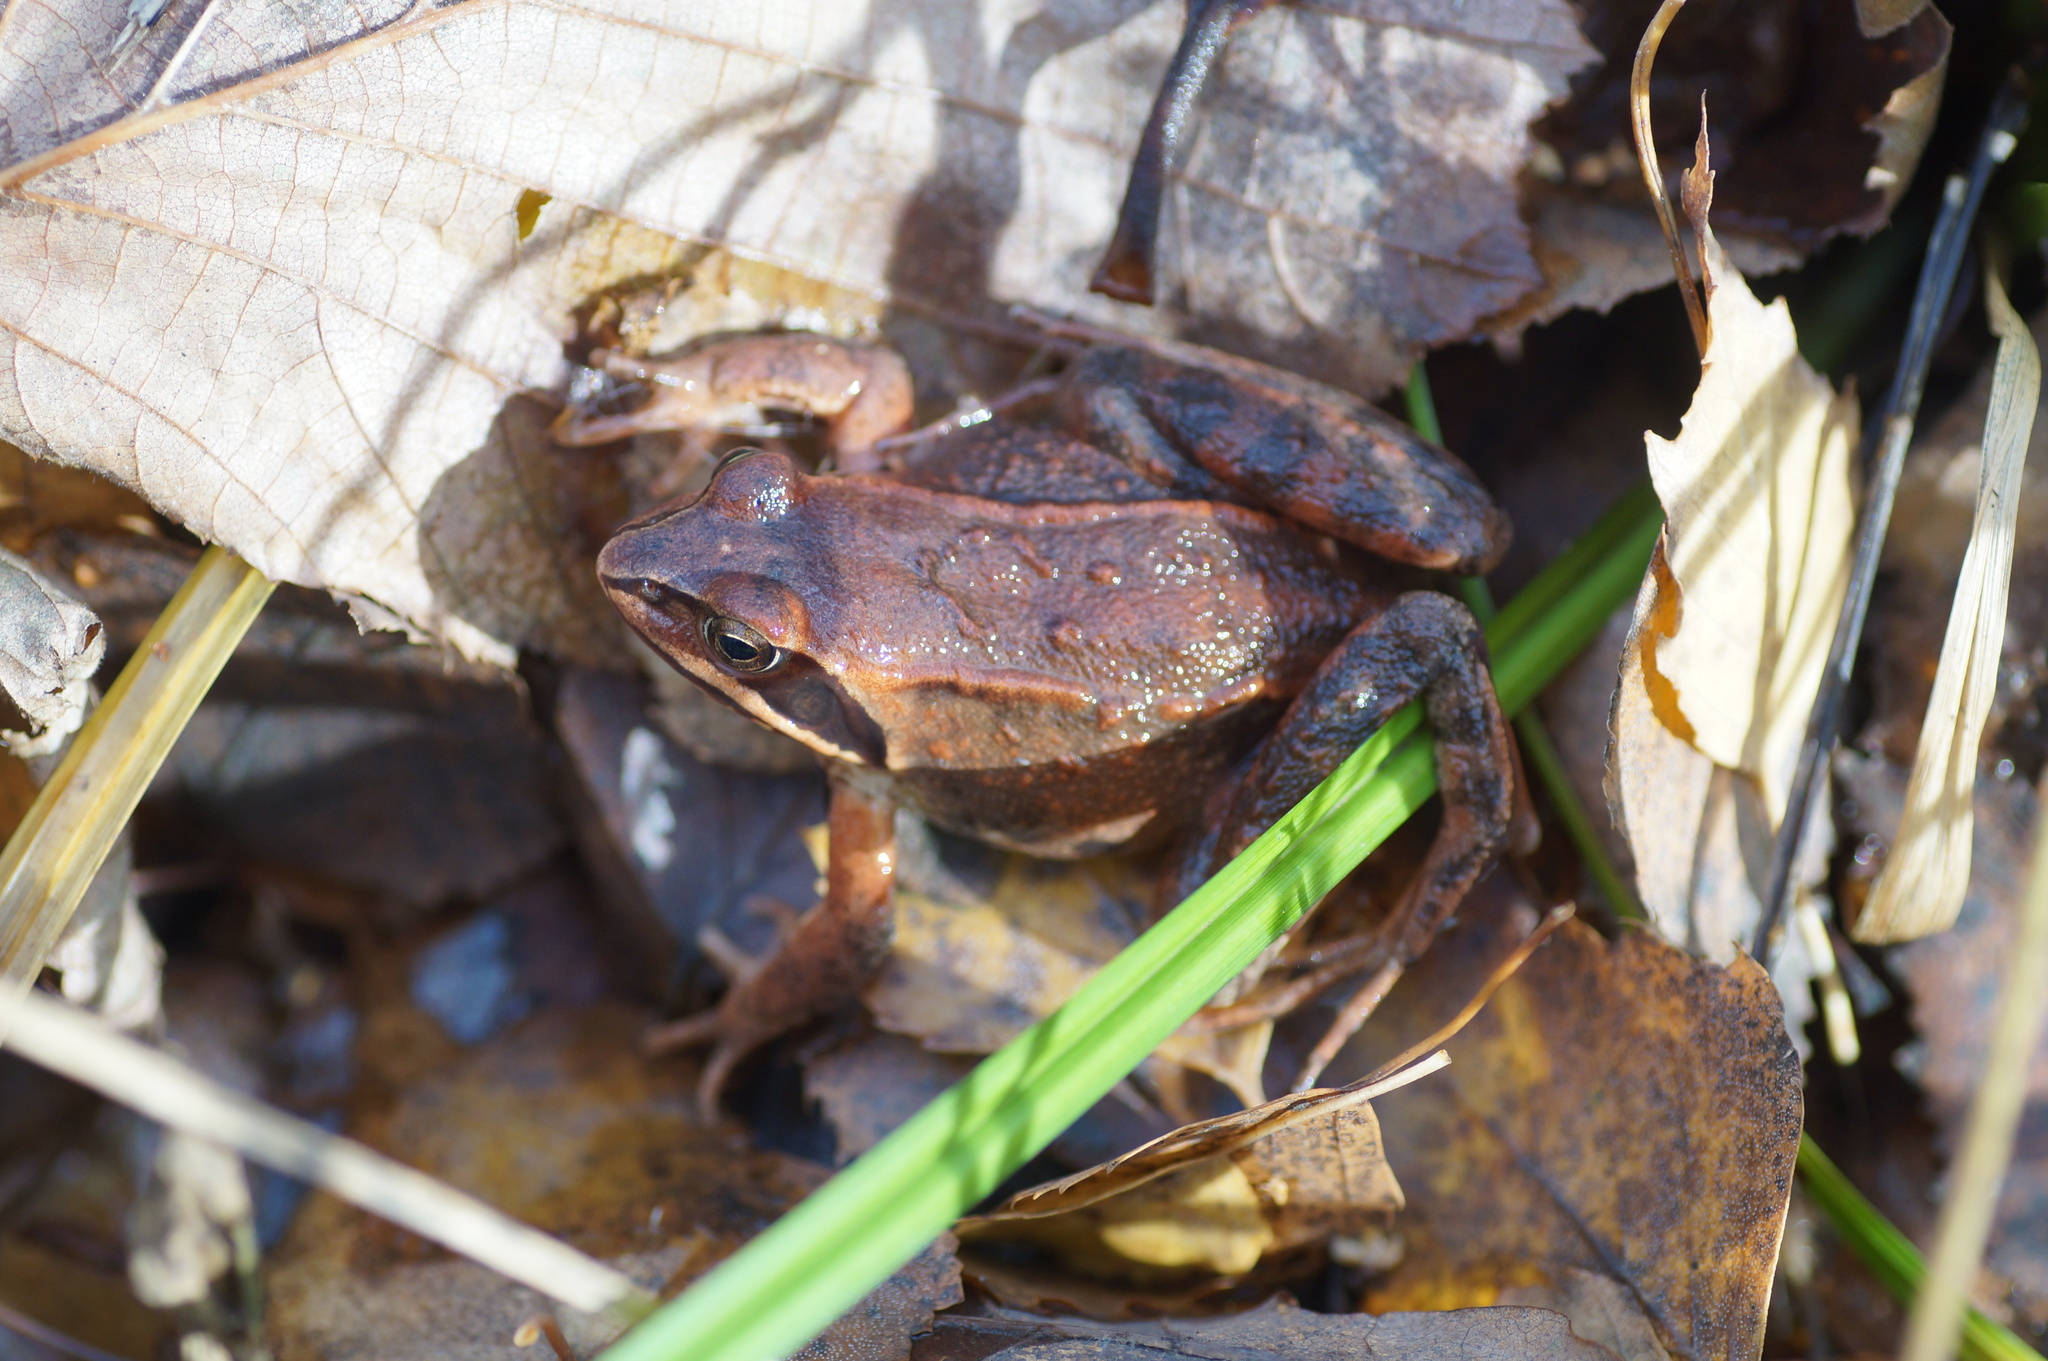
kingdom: Animalia
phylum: Chordata
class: Amphibia
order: Anura
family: Ranidae
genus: Rana
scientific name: Rana arvalis
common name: Moor frog
